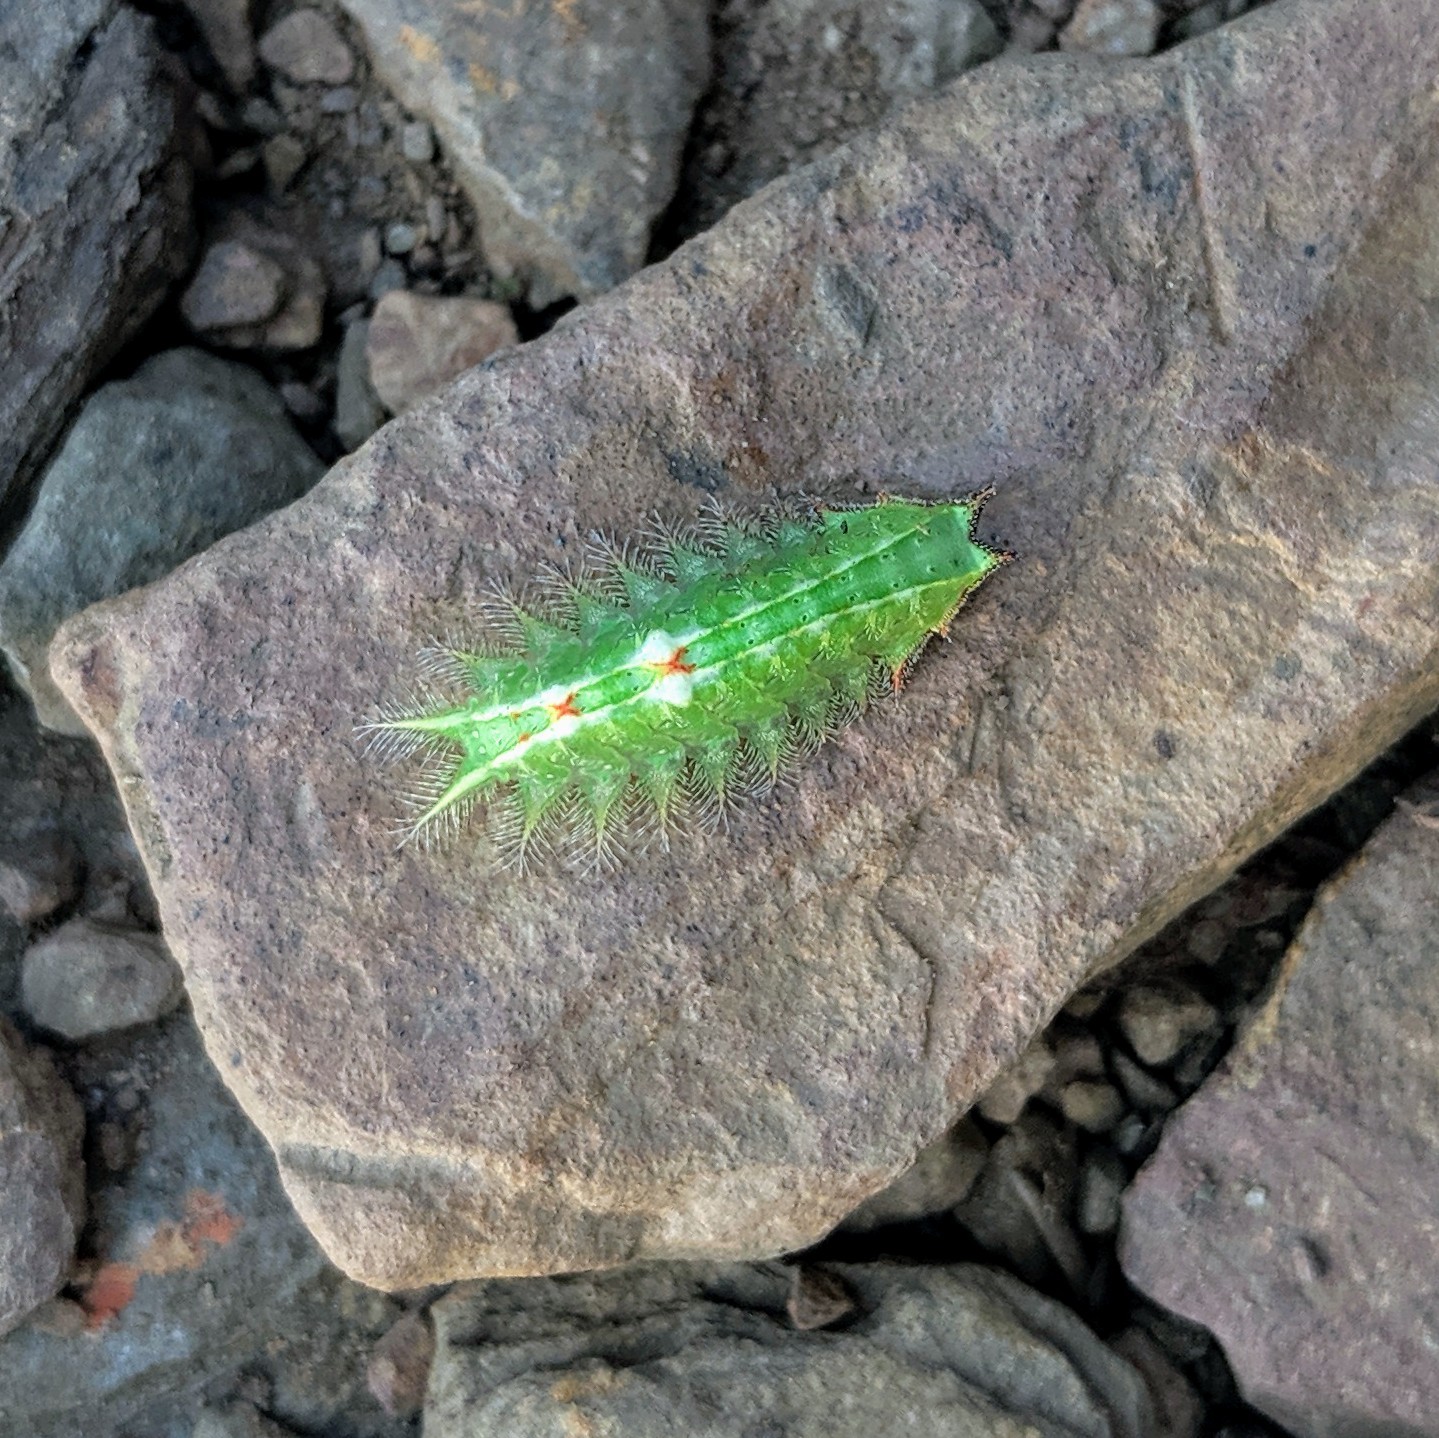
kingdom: Animalia
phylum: Arthropoda
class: Insecta
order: Lepidoptera
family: Limacodidae
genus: Isa
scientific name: Isa textula
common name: Crowned slug moth
